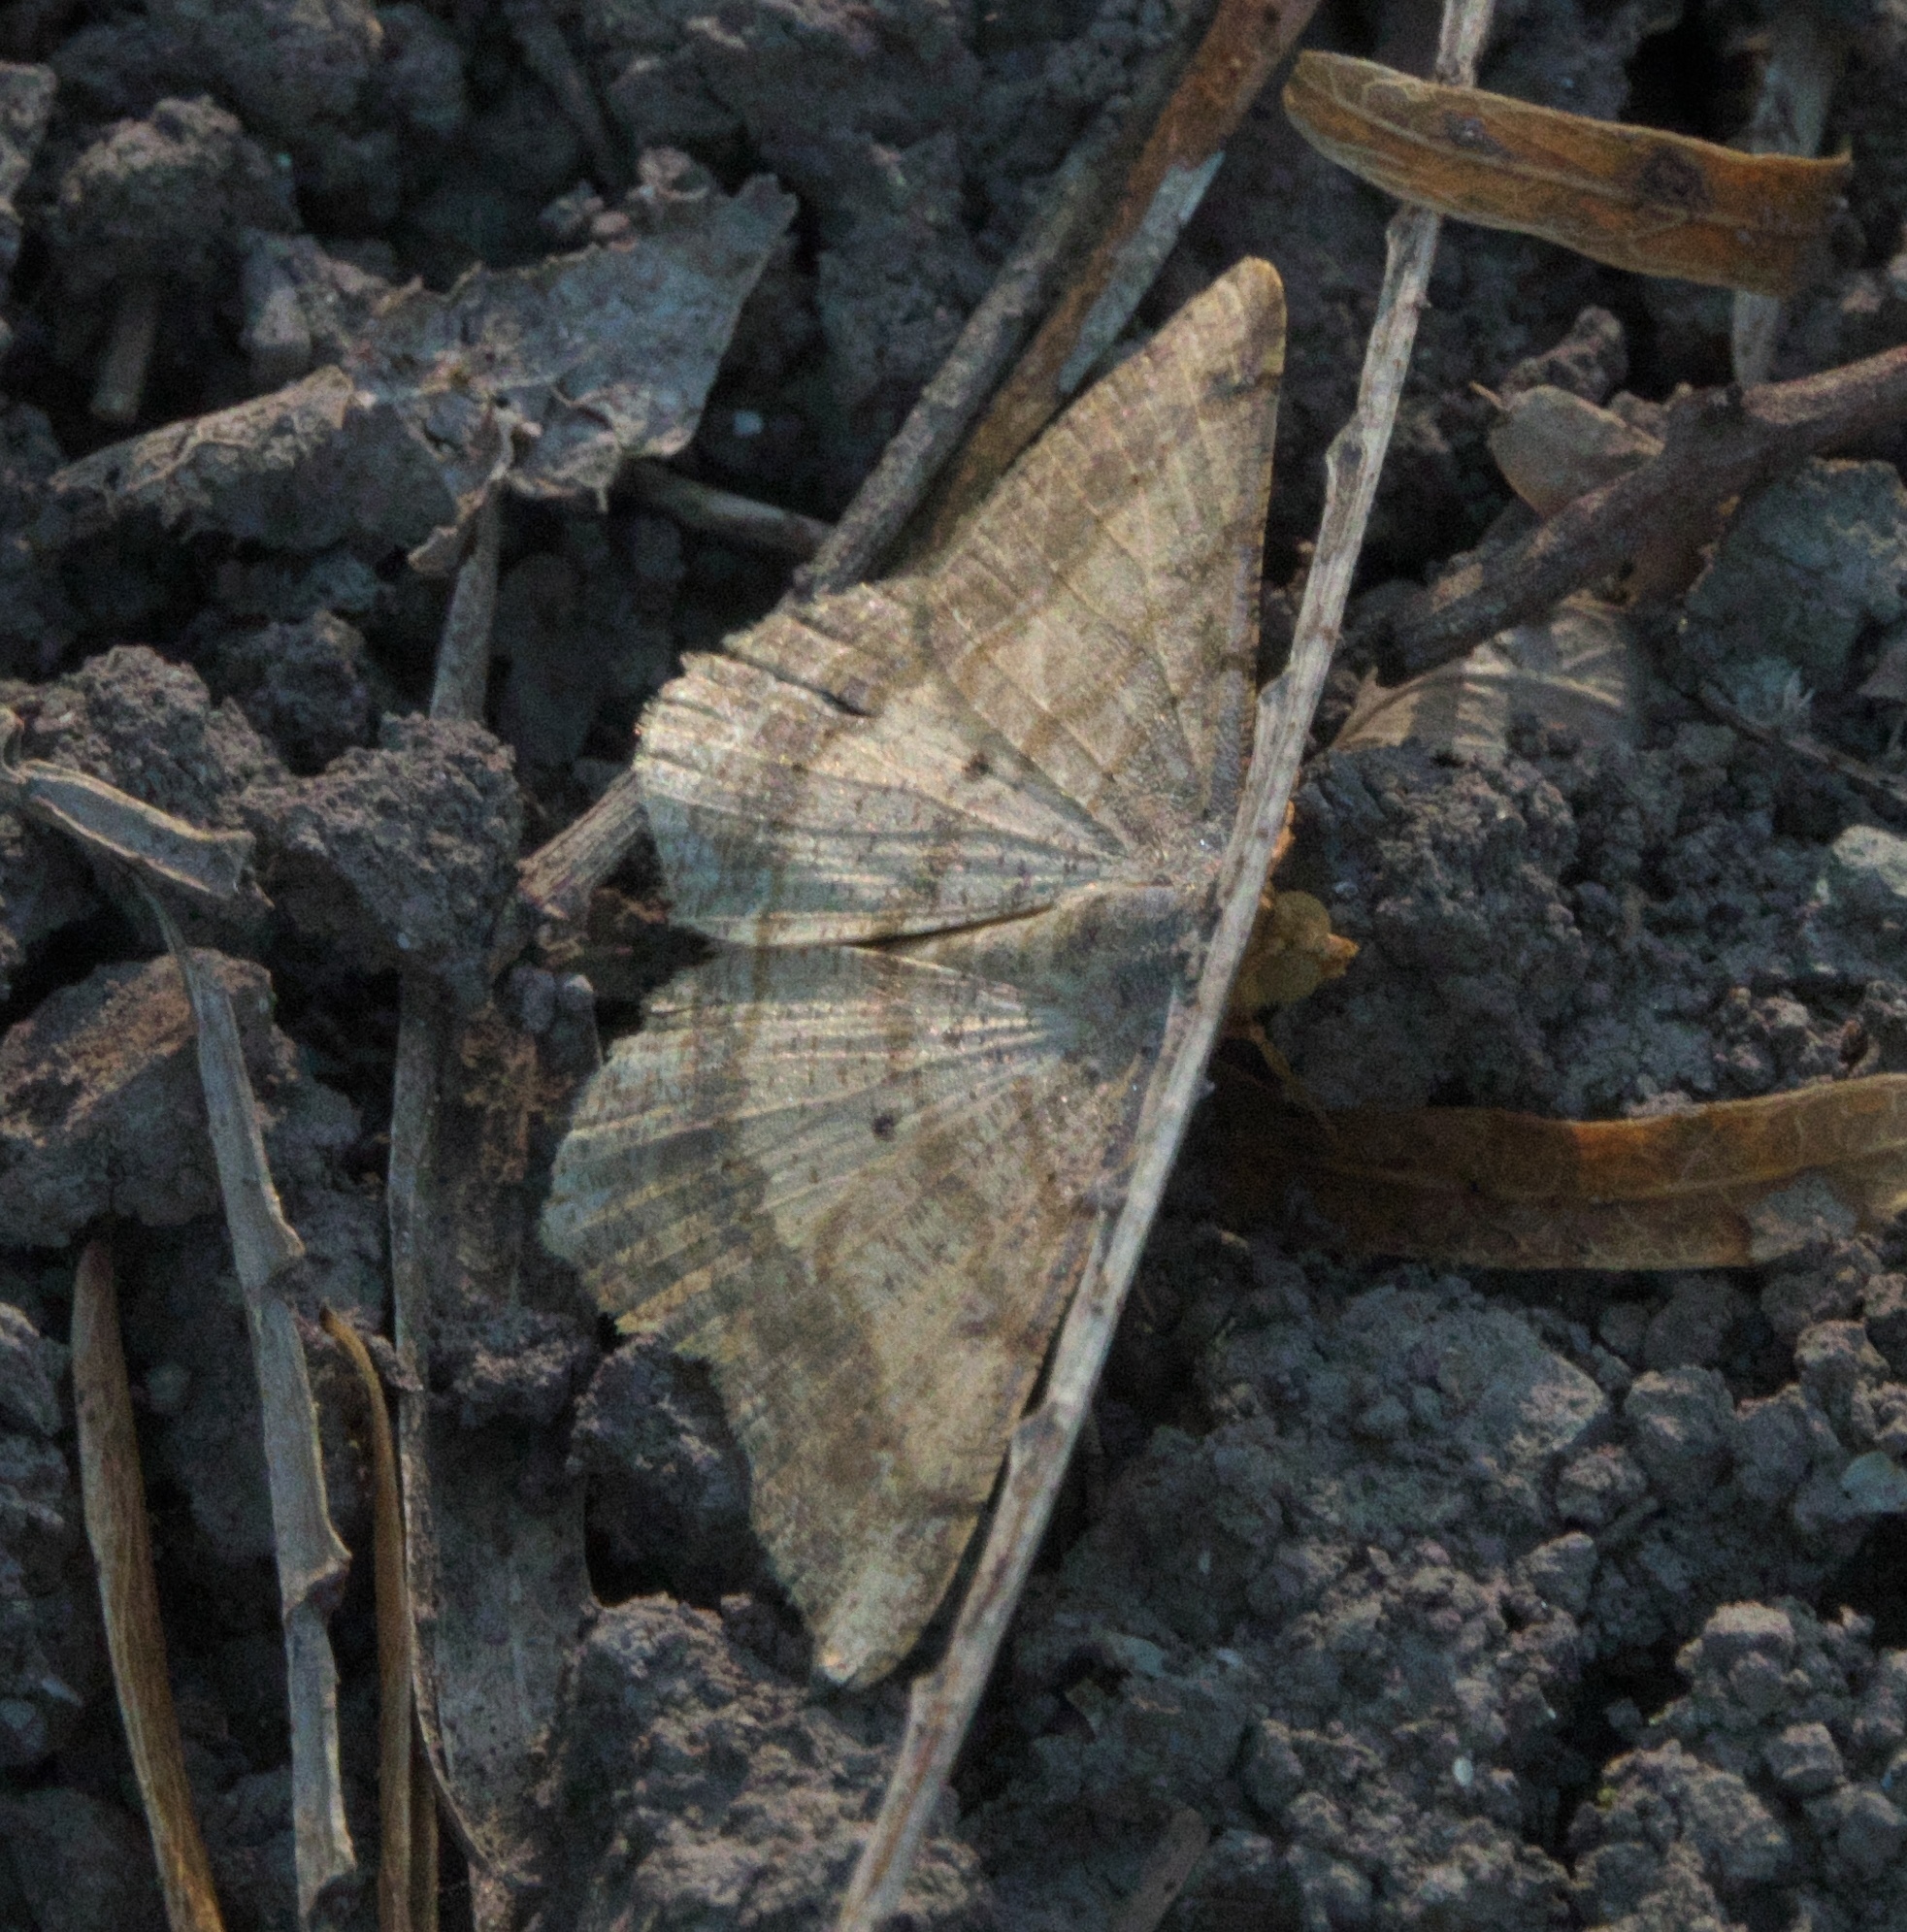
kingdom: Animalia
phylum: Arthropoda
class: Insecta
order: Lepidoptera
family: Geometridae
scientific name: Geometridae
